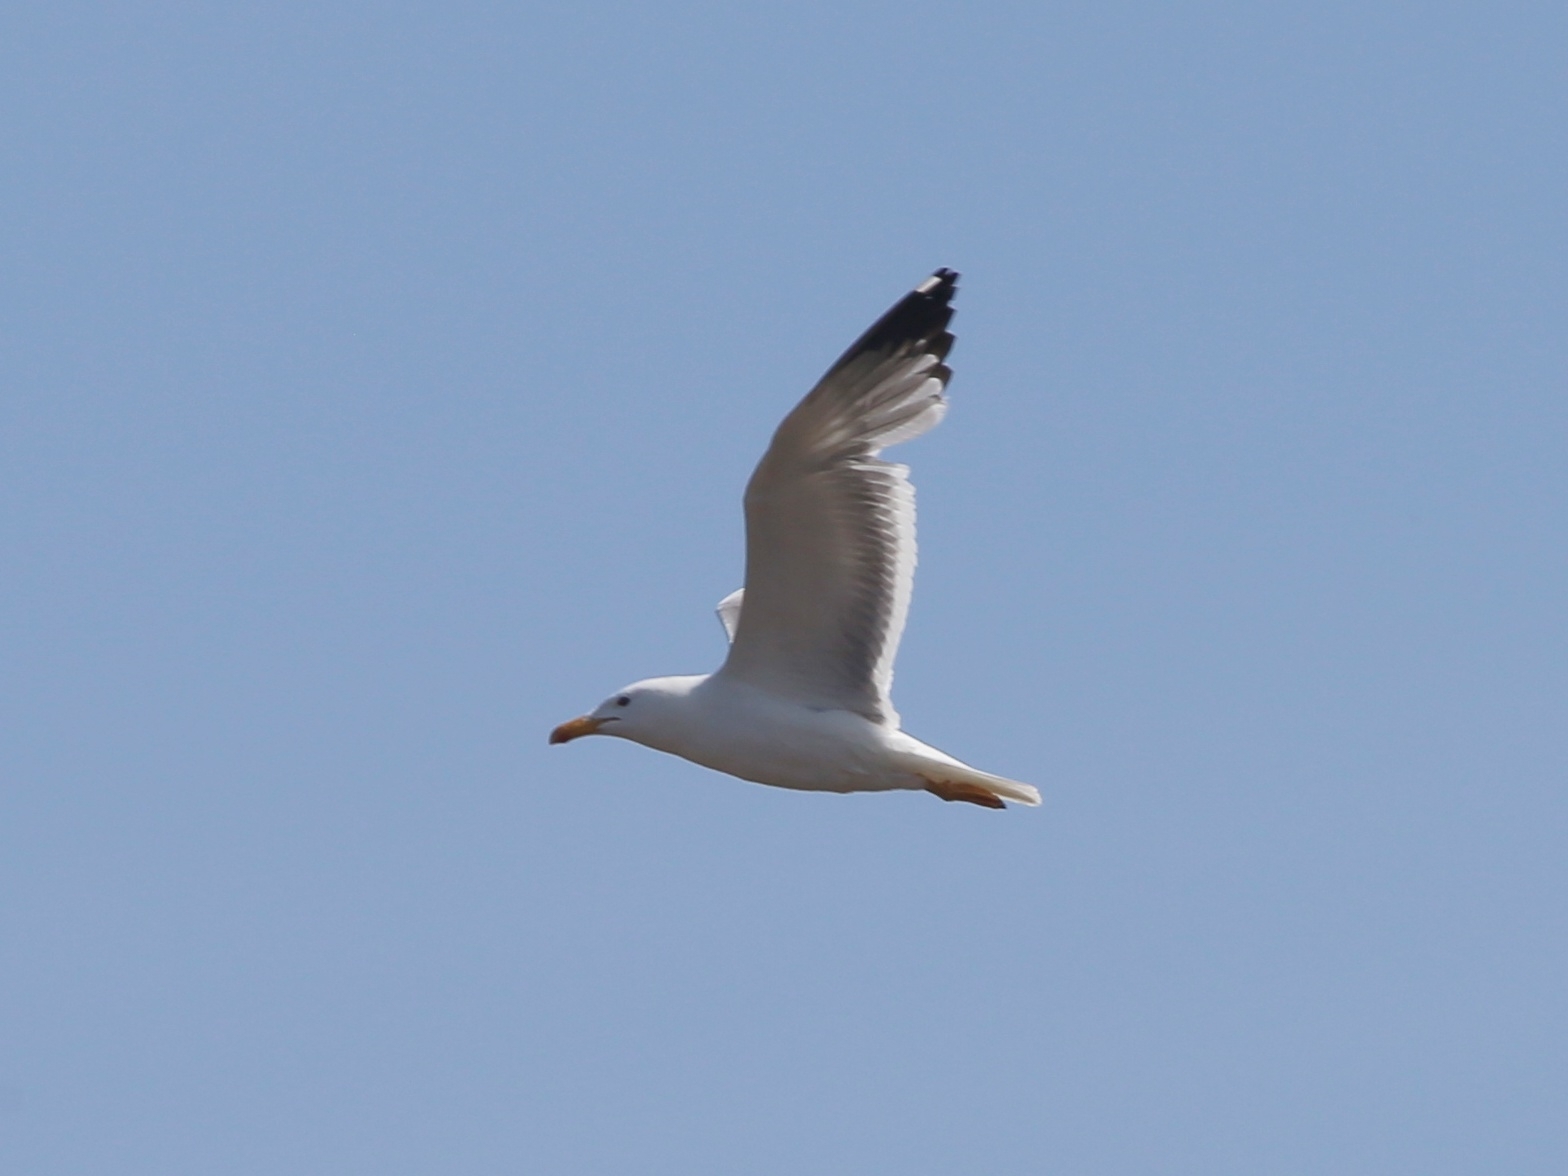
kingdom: Animalia
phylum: Chordata
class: Aves
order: Charadriiformes
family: Laridae
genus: Larus
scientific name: Larus fuscus
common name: Lesser black-backed gull
